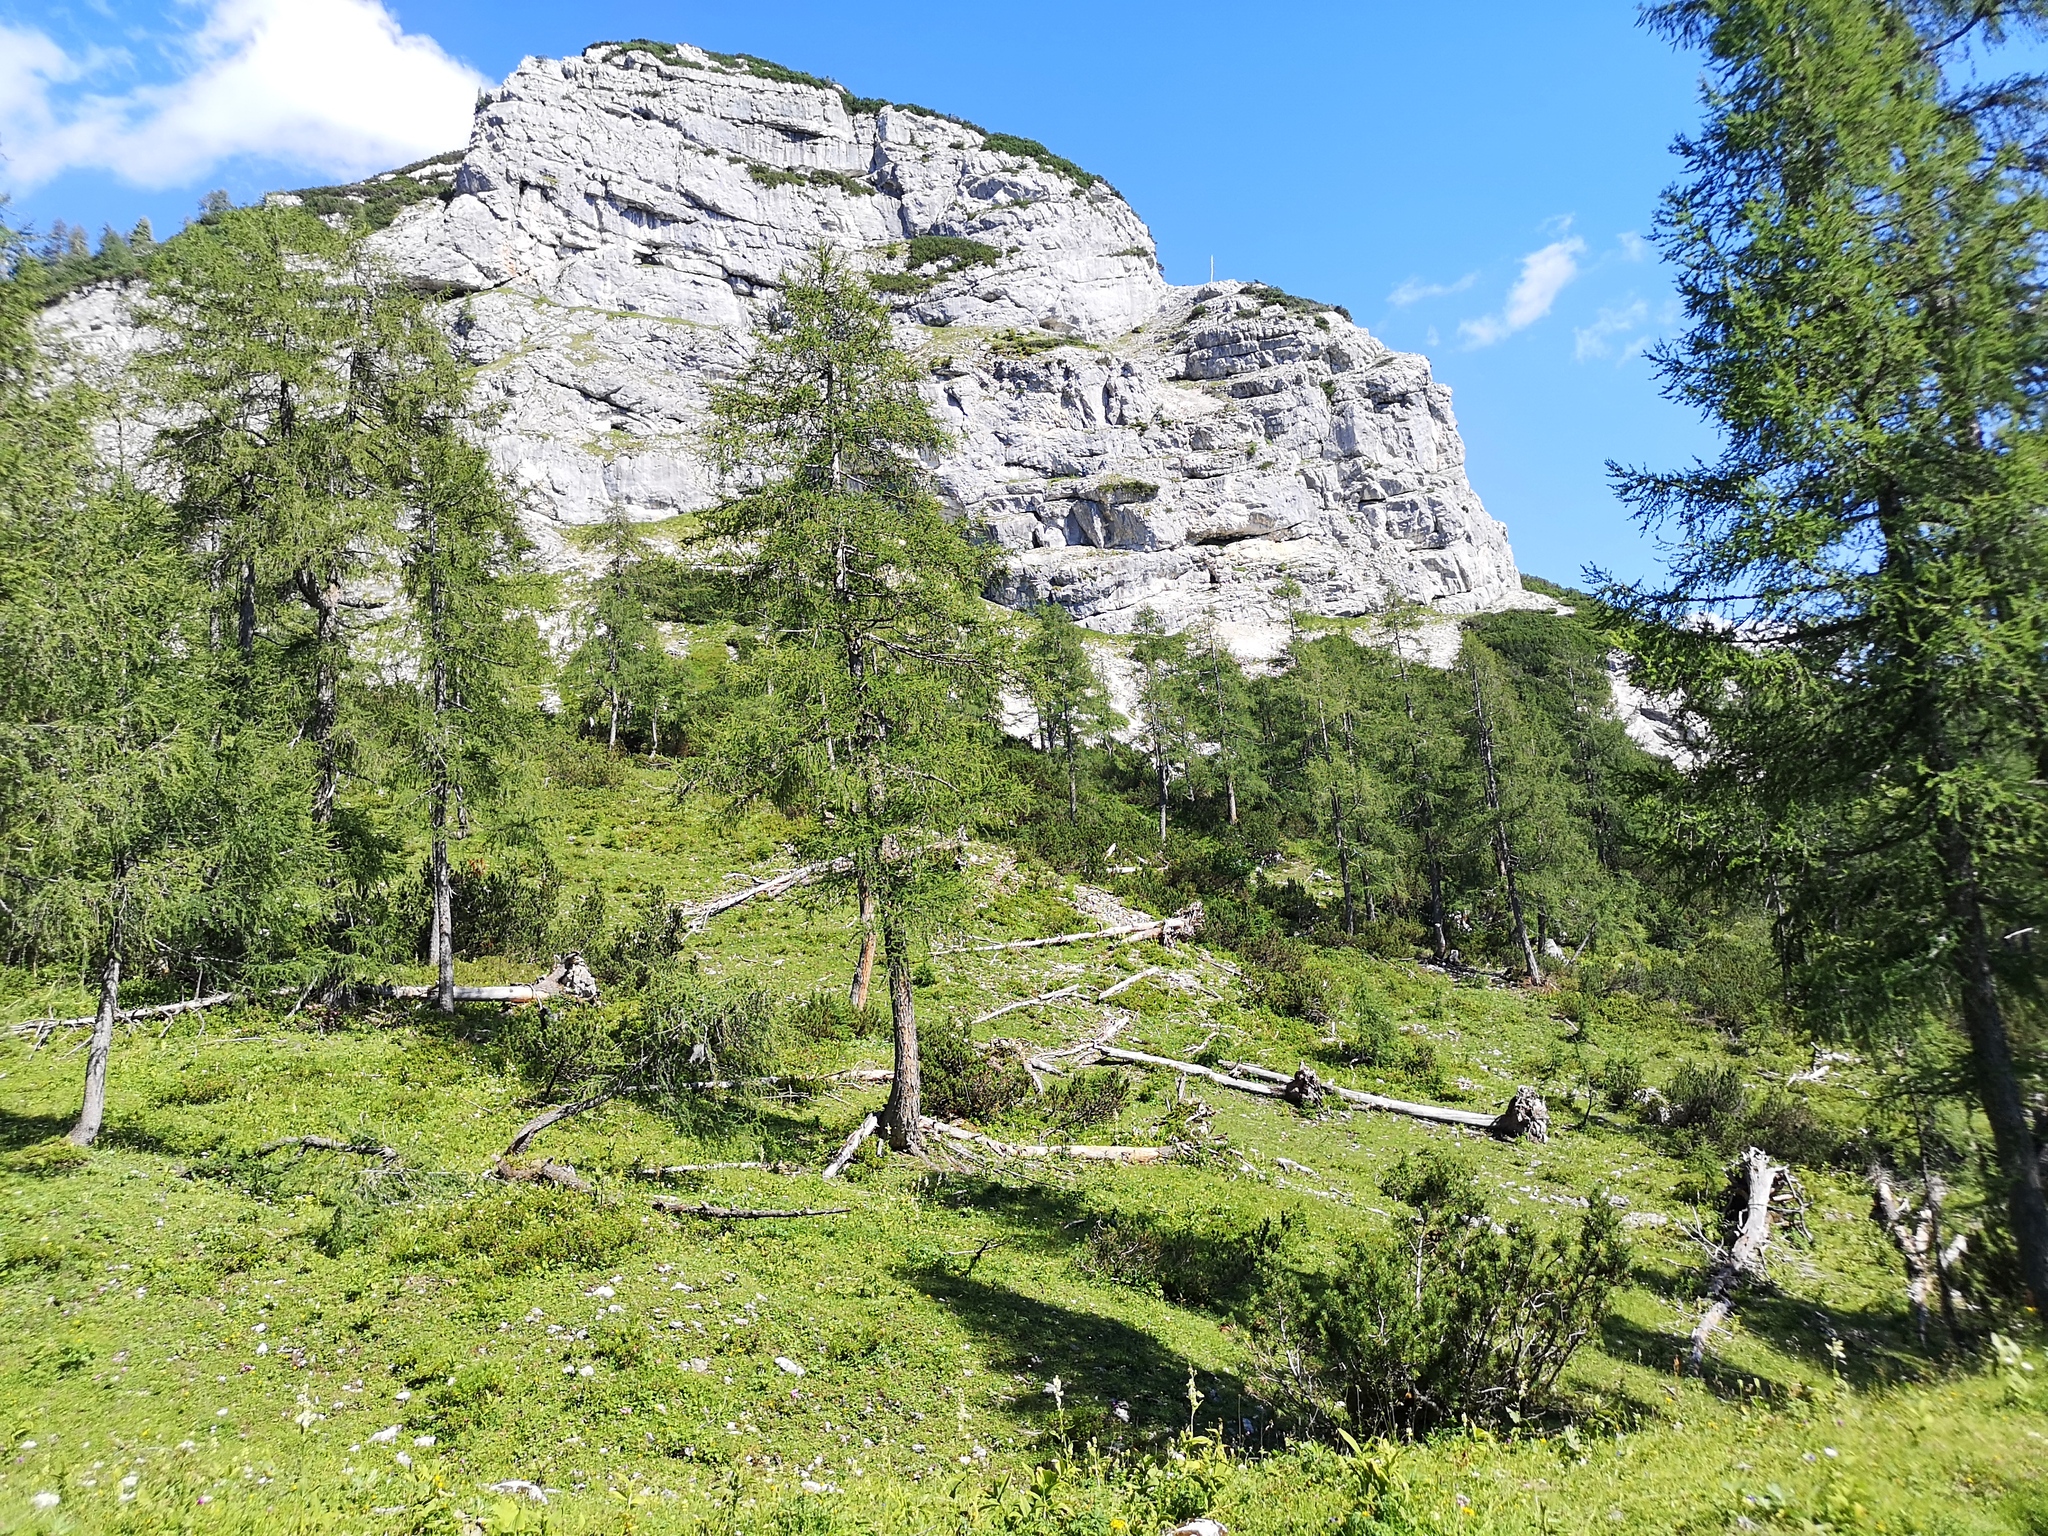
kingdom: Plantae
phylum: Tracheophyta
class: Pinopsida
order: Pinales
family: Pinaceae
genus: Larix
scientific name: Larix decidua
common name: European larch
